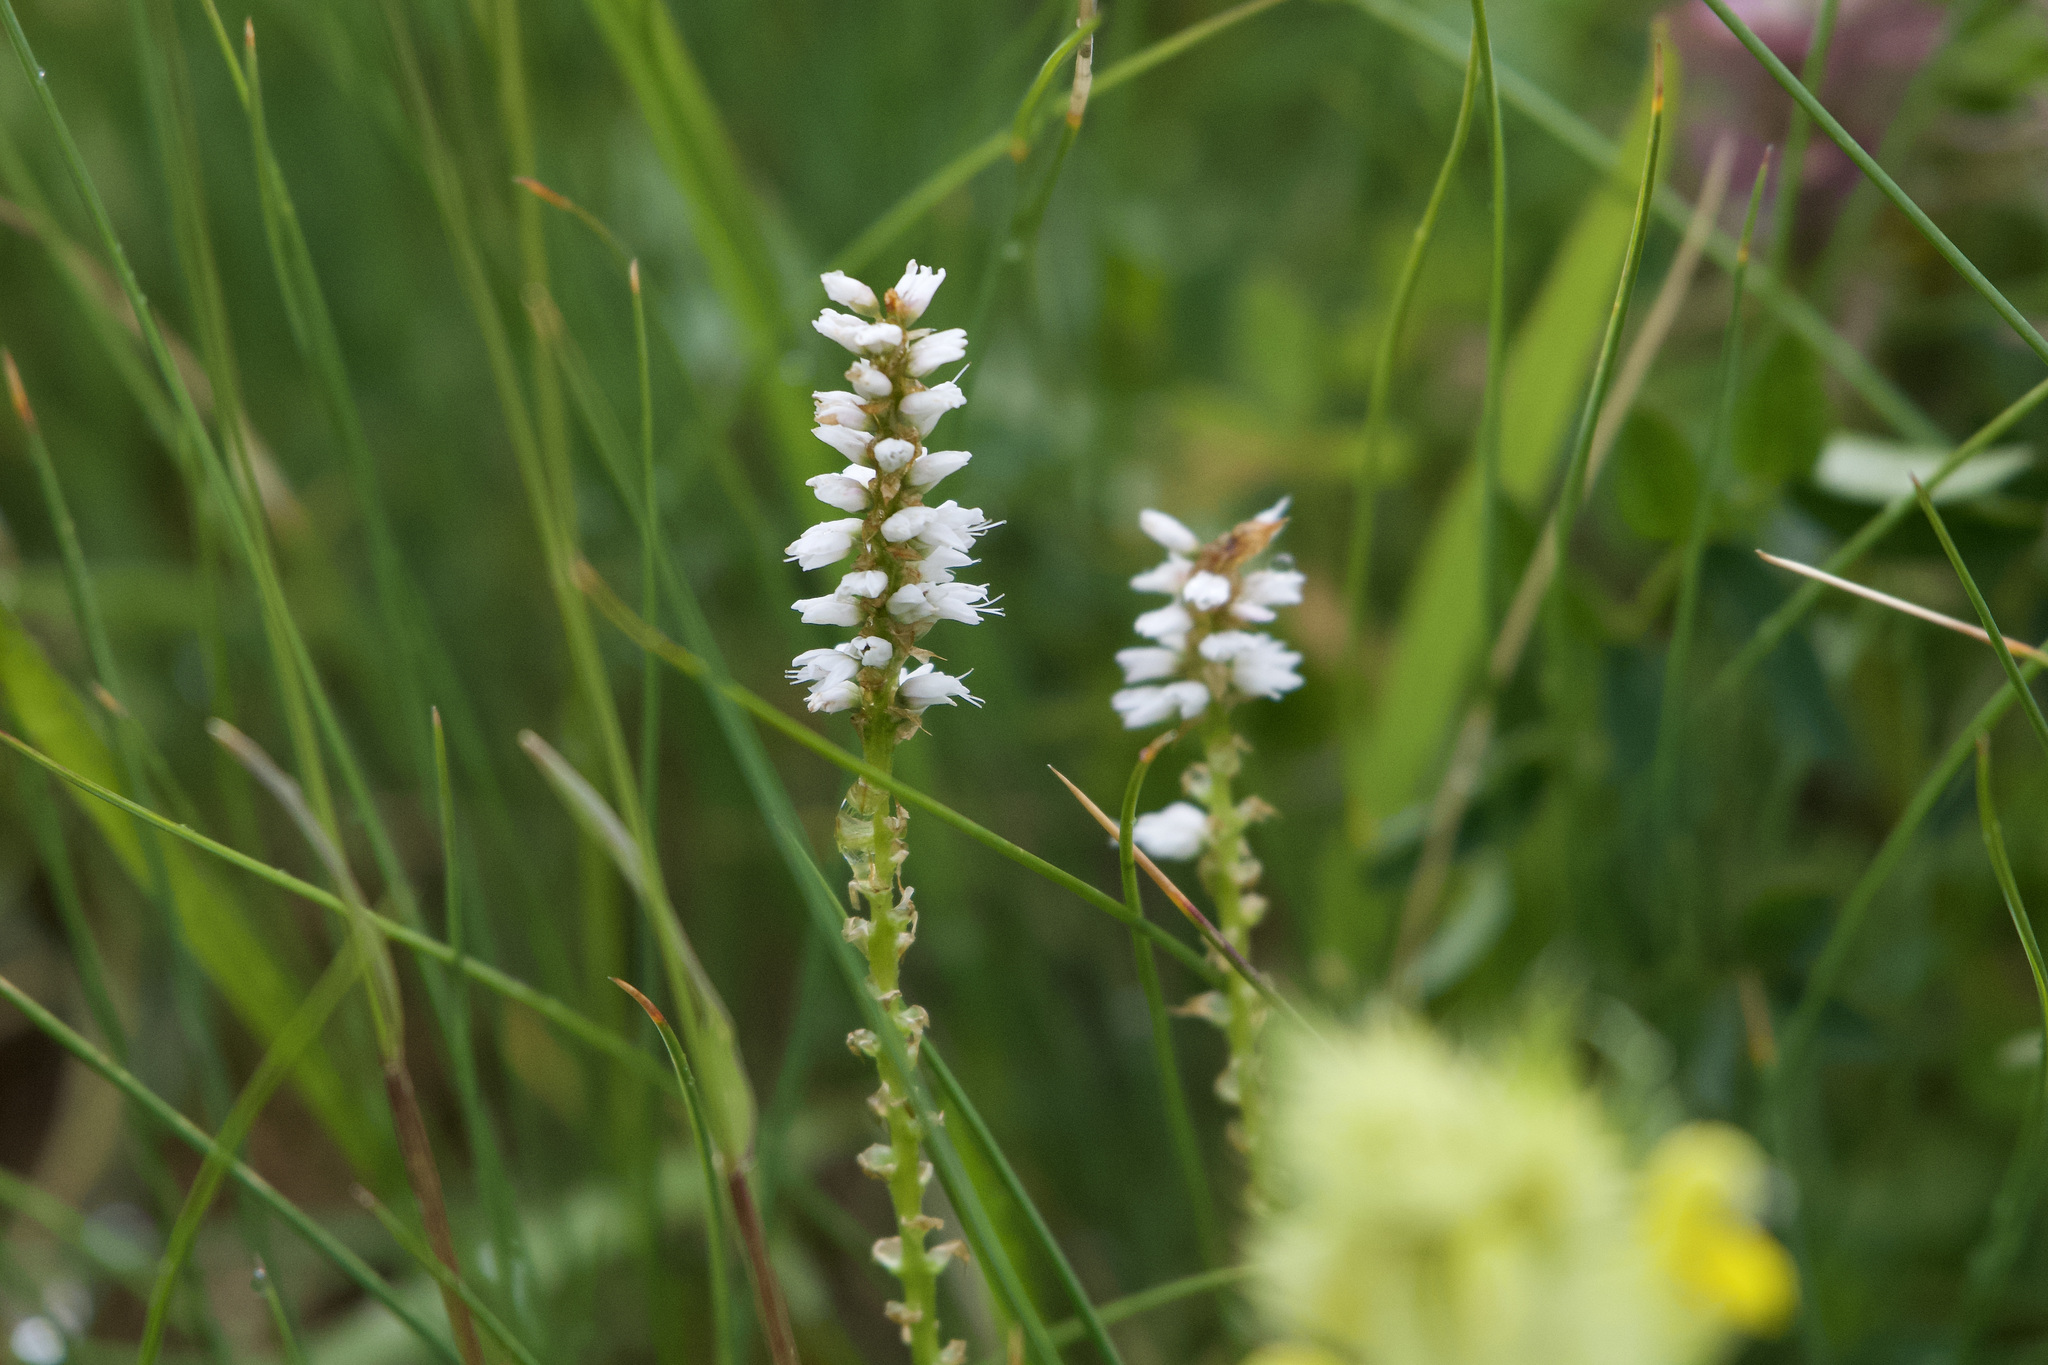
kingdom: Plantae
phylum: Tracheophyta
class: Magnoliopsida
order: Caryophyllales
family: Polygonaceae
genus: Bistorta
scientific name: Bistorta vivipara
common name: Alpine bistort
